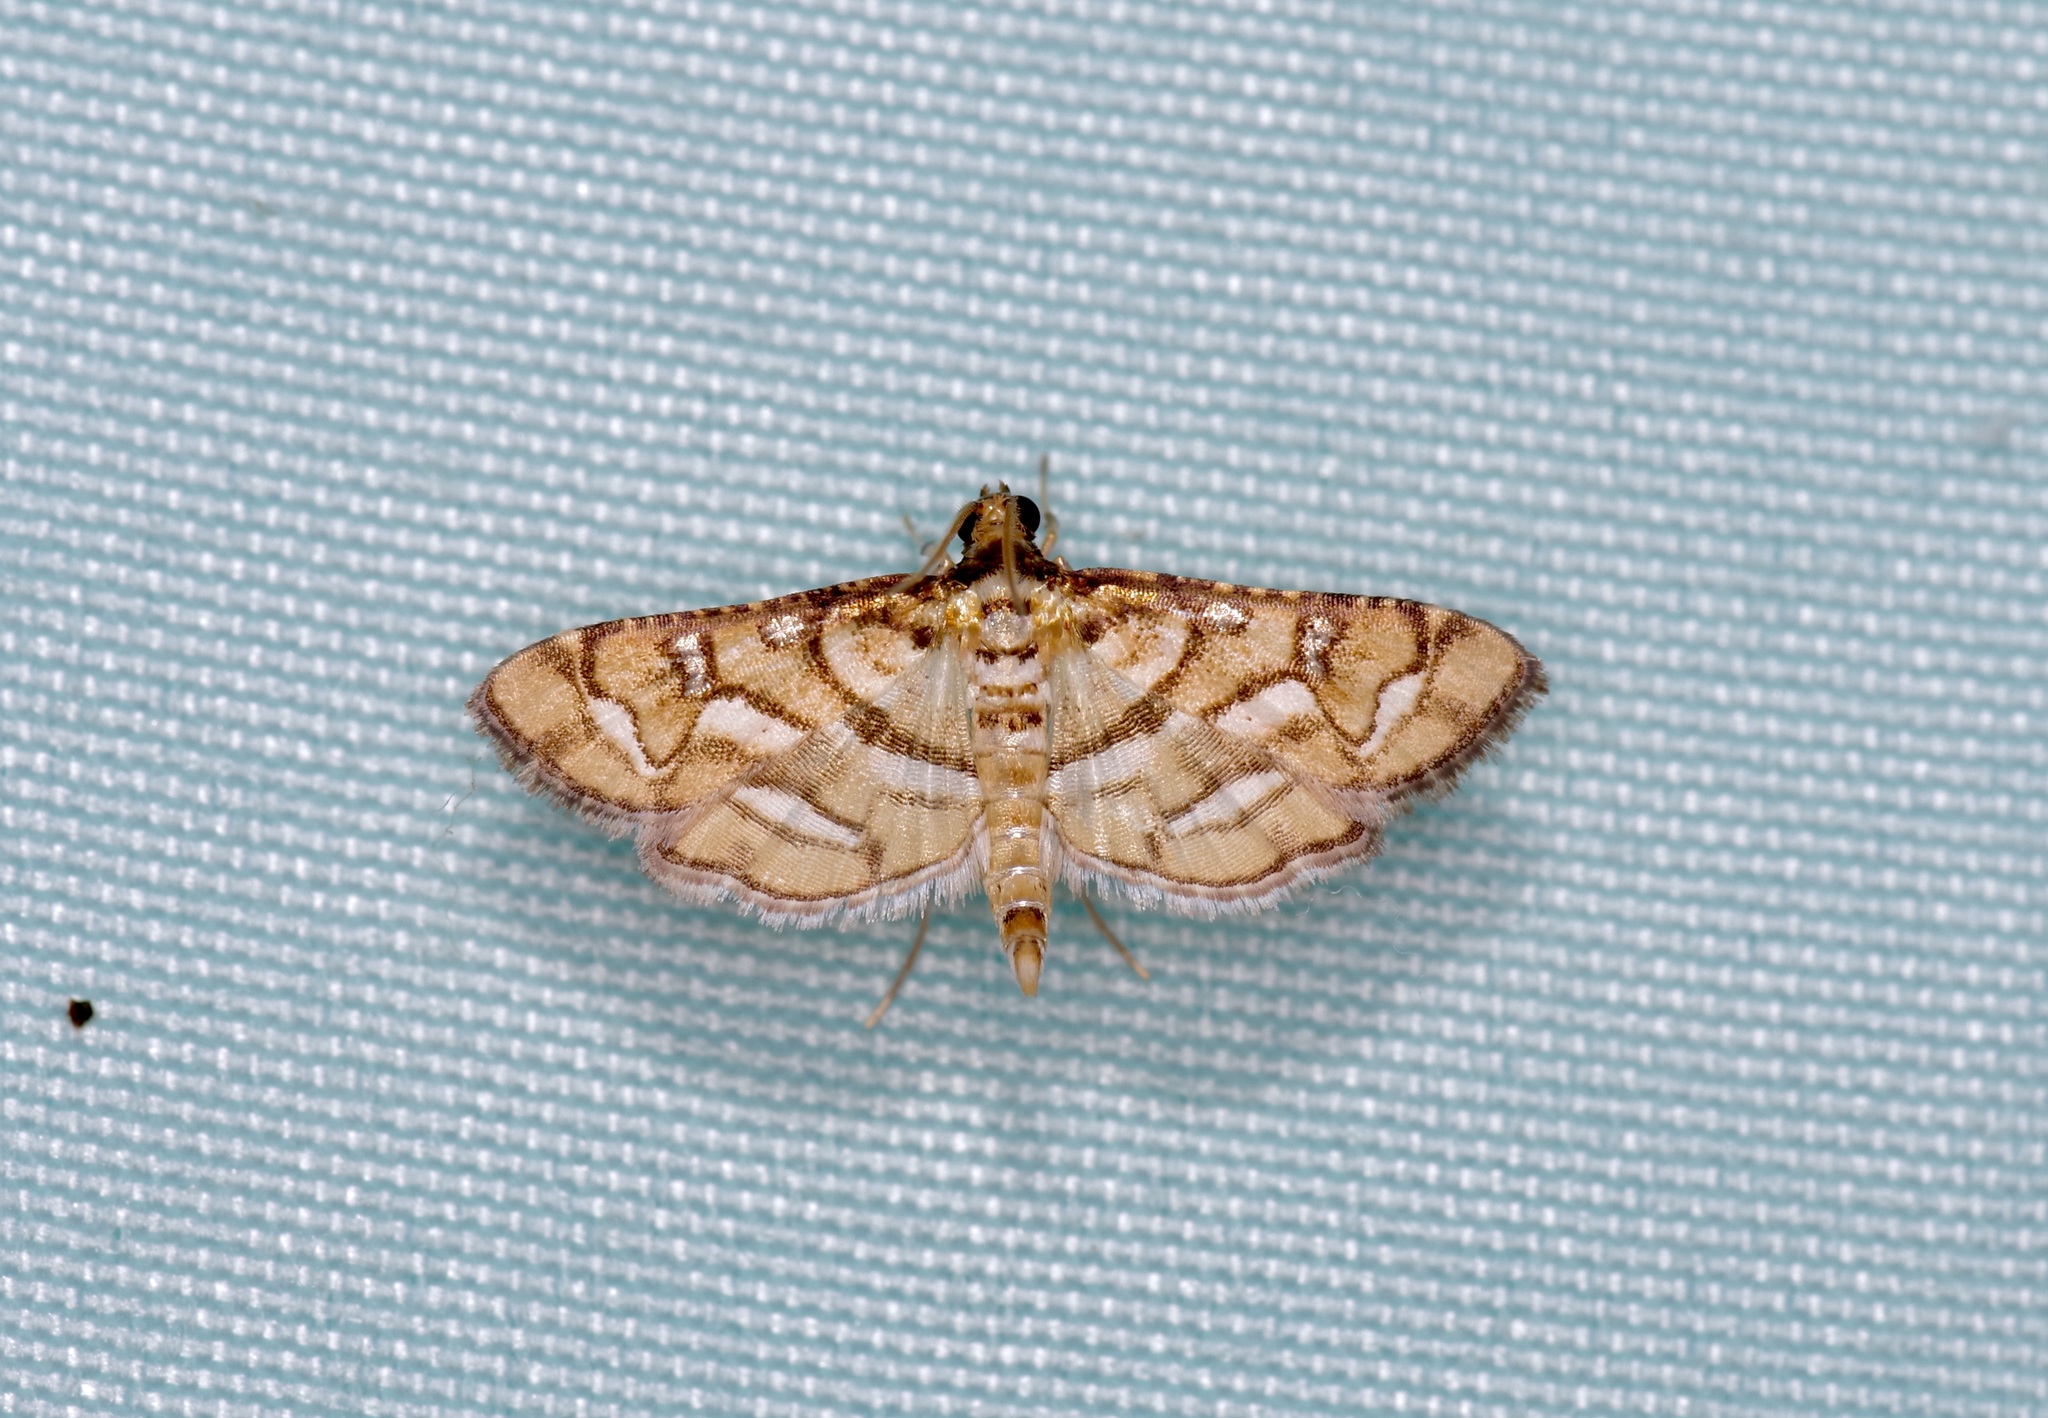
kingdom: Animalia
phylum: Arthropoda
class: Insecta
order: Lepidoptera
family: Crambidae
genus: Hileithia
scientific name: Hileithia magualis
